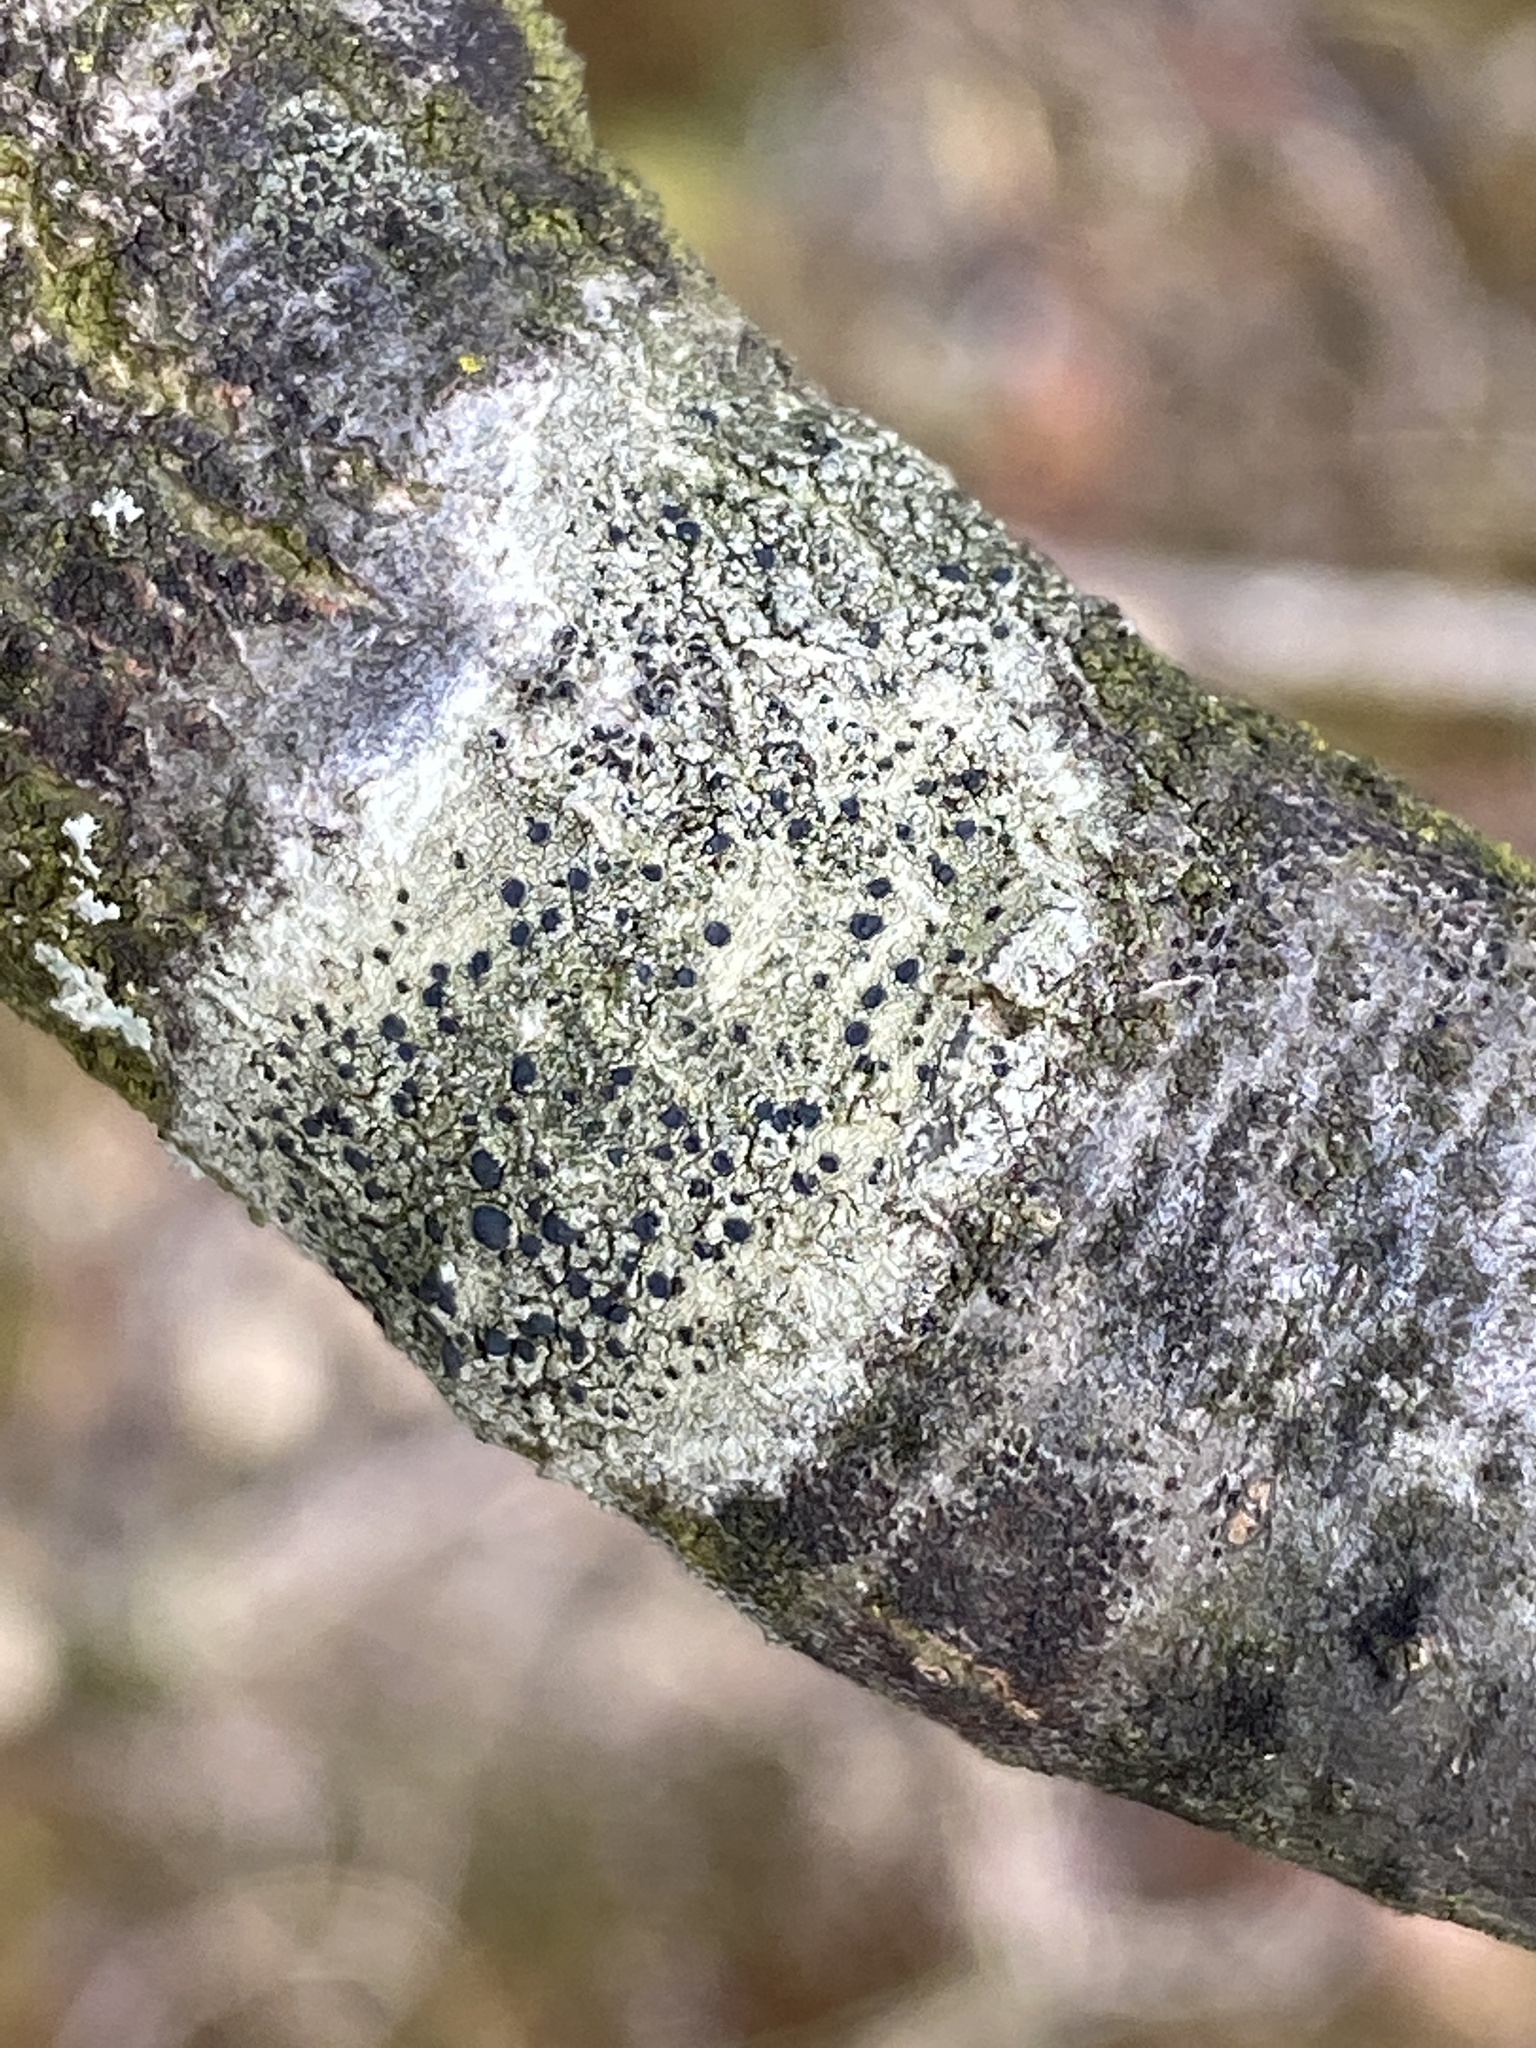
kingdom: Fungi
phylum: Ascomycota
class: Lecanoromycetes
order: Lecanorales
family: Lecanoraceae
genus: Lecidella
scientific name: Lecidella elaeochroma
